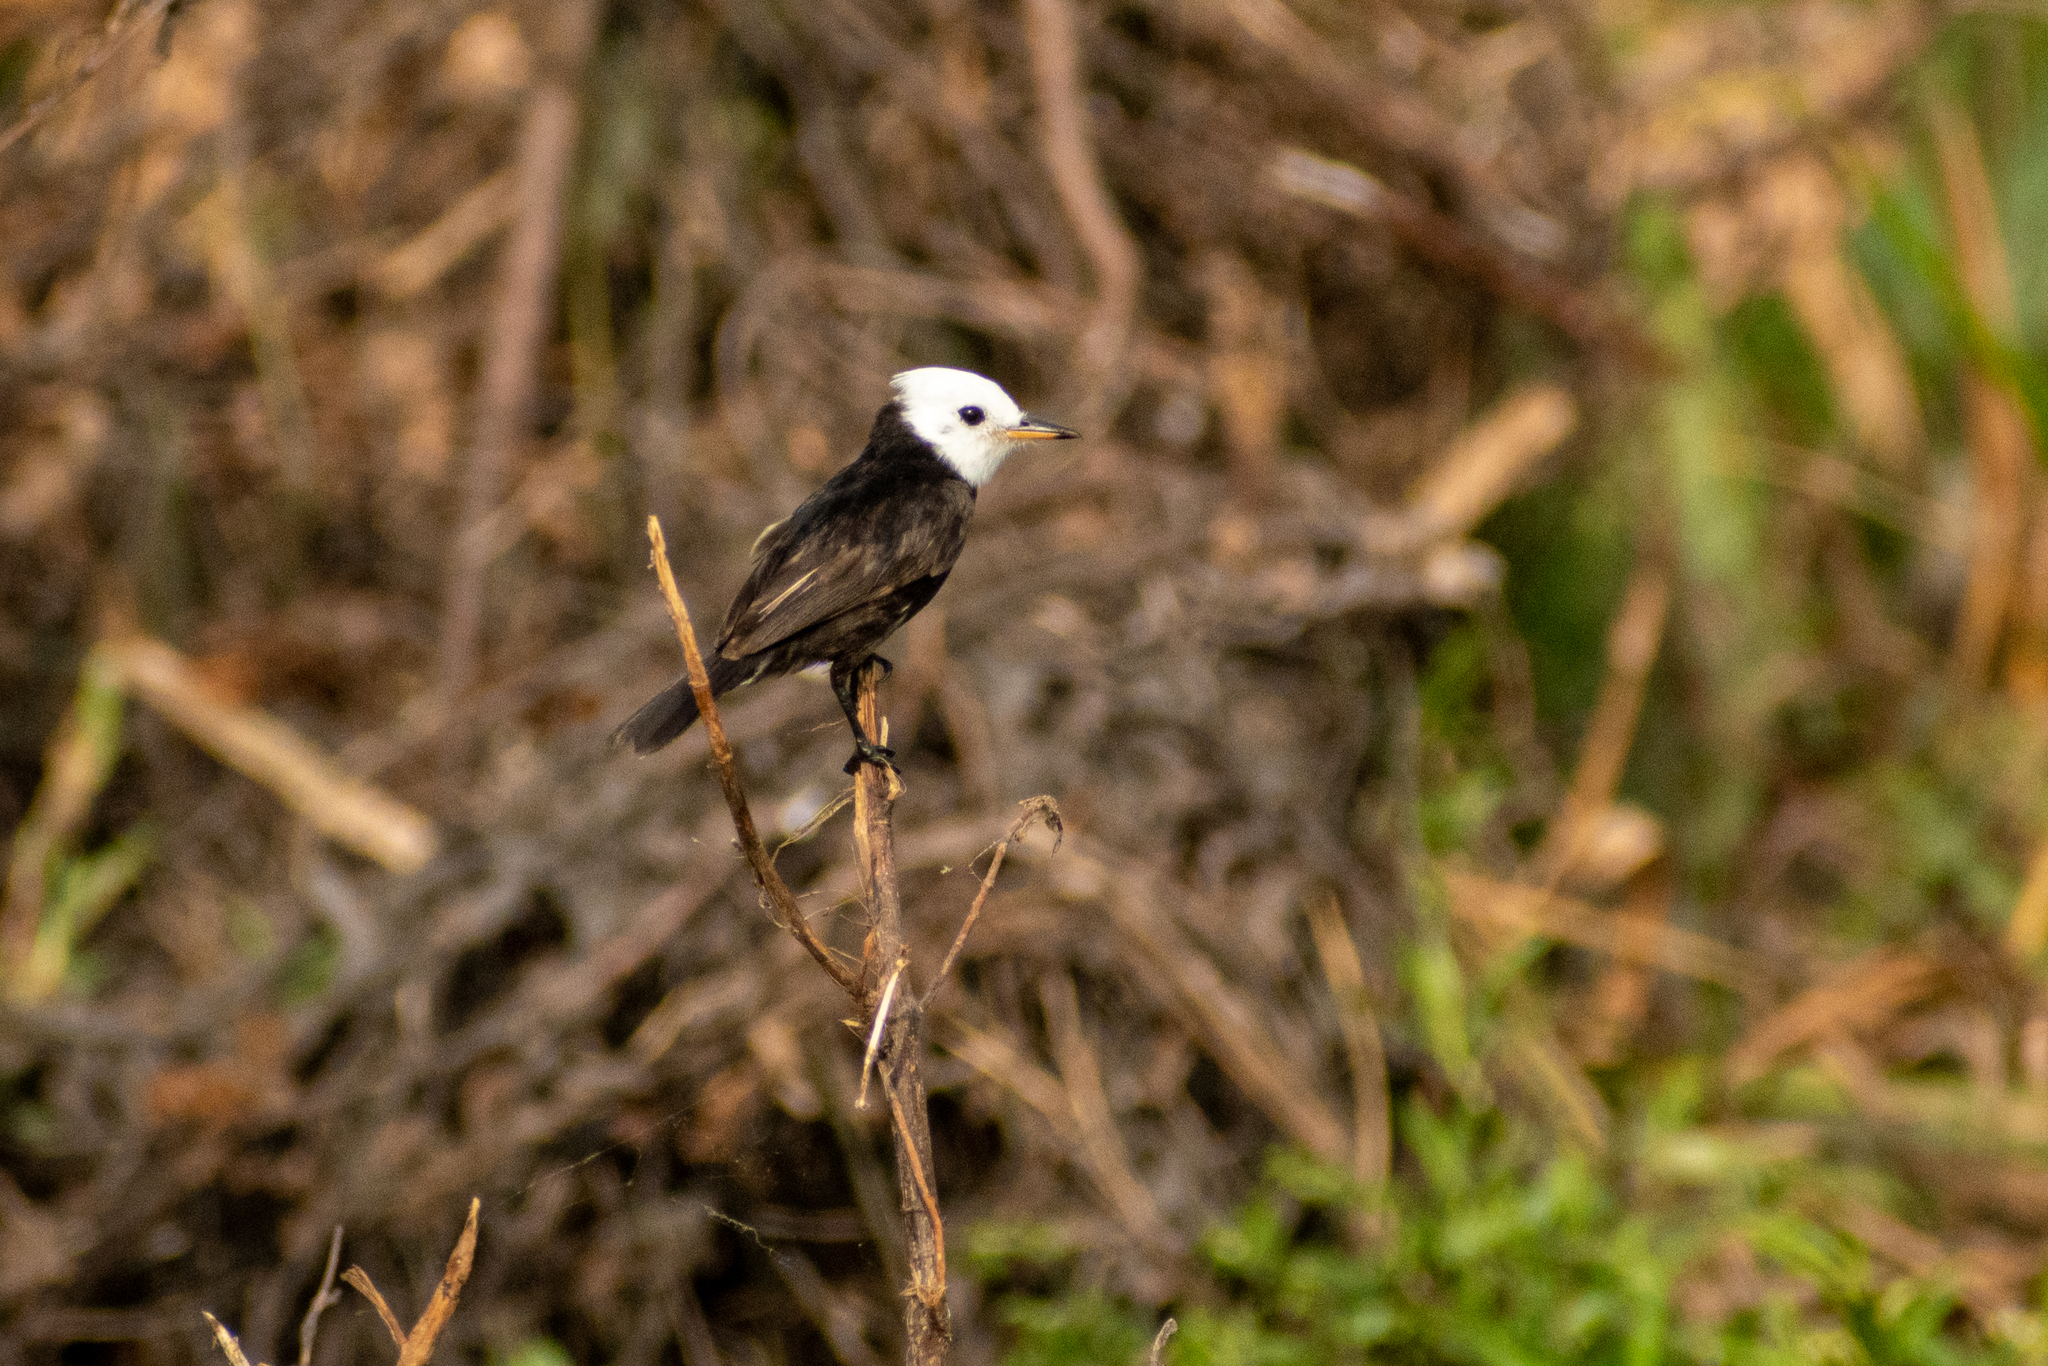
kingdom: Animalia
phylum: Chordata
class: Aves
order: Passeriformes
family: Tyrannidae
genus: Arundinicola
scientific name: Arundinicola leucocephala
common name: White-headed marsh tyrant
